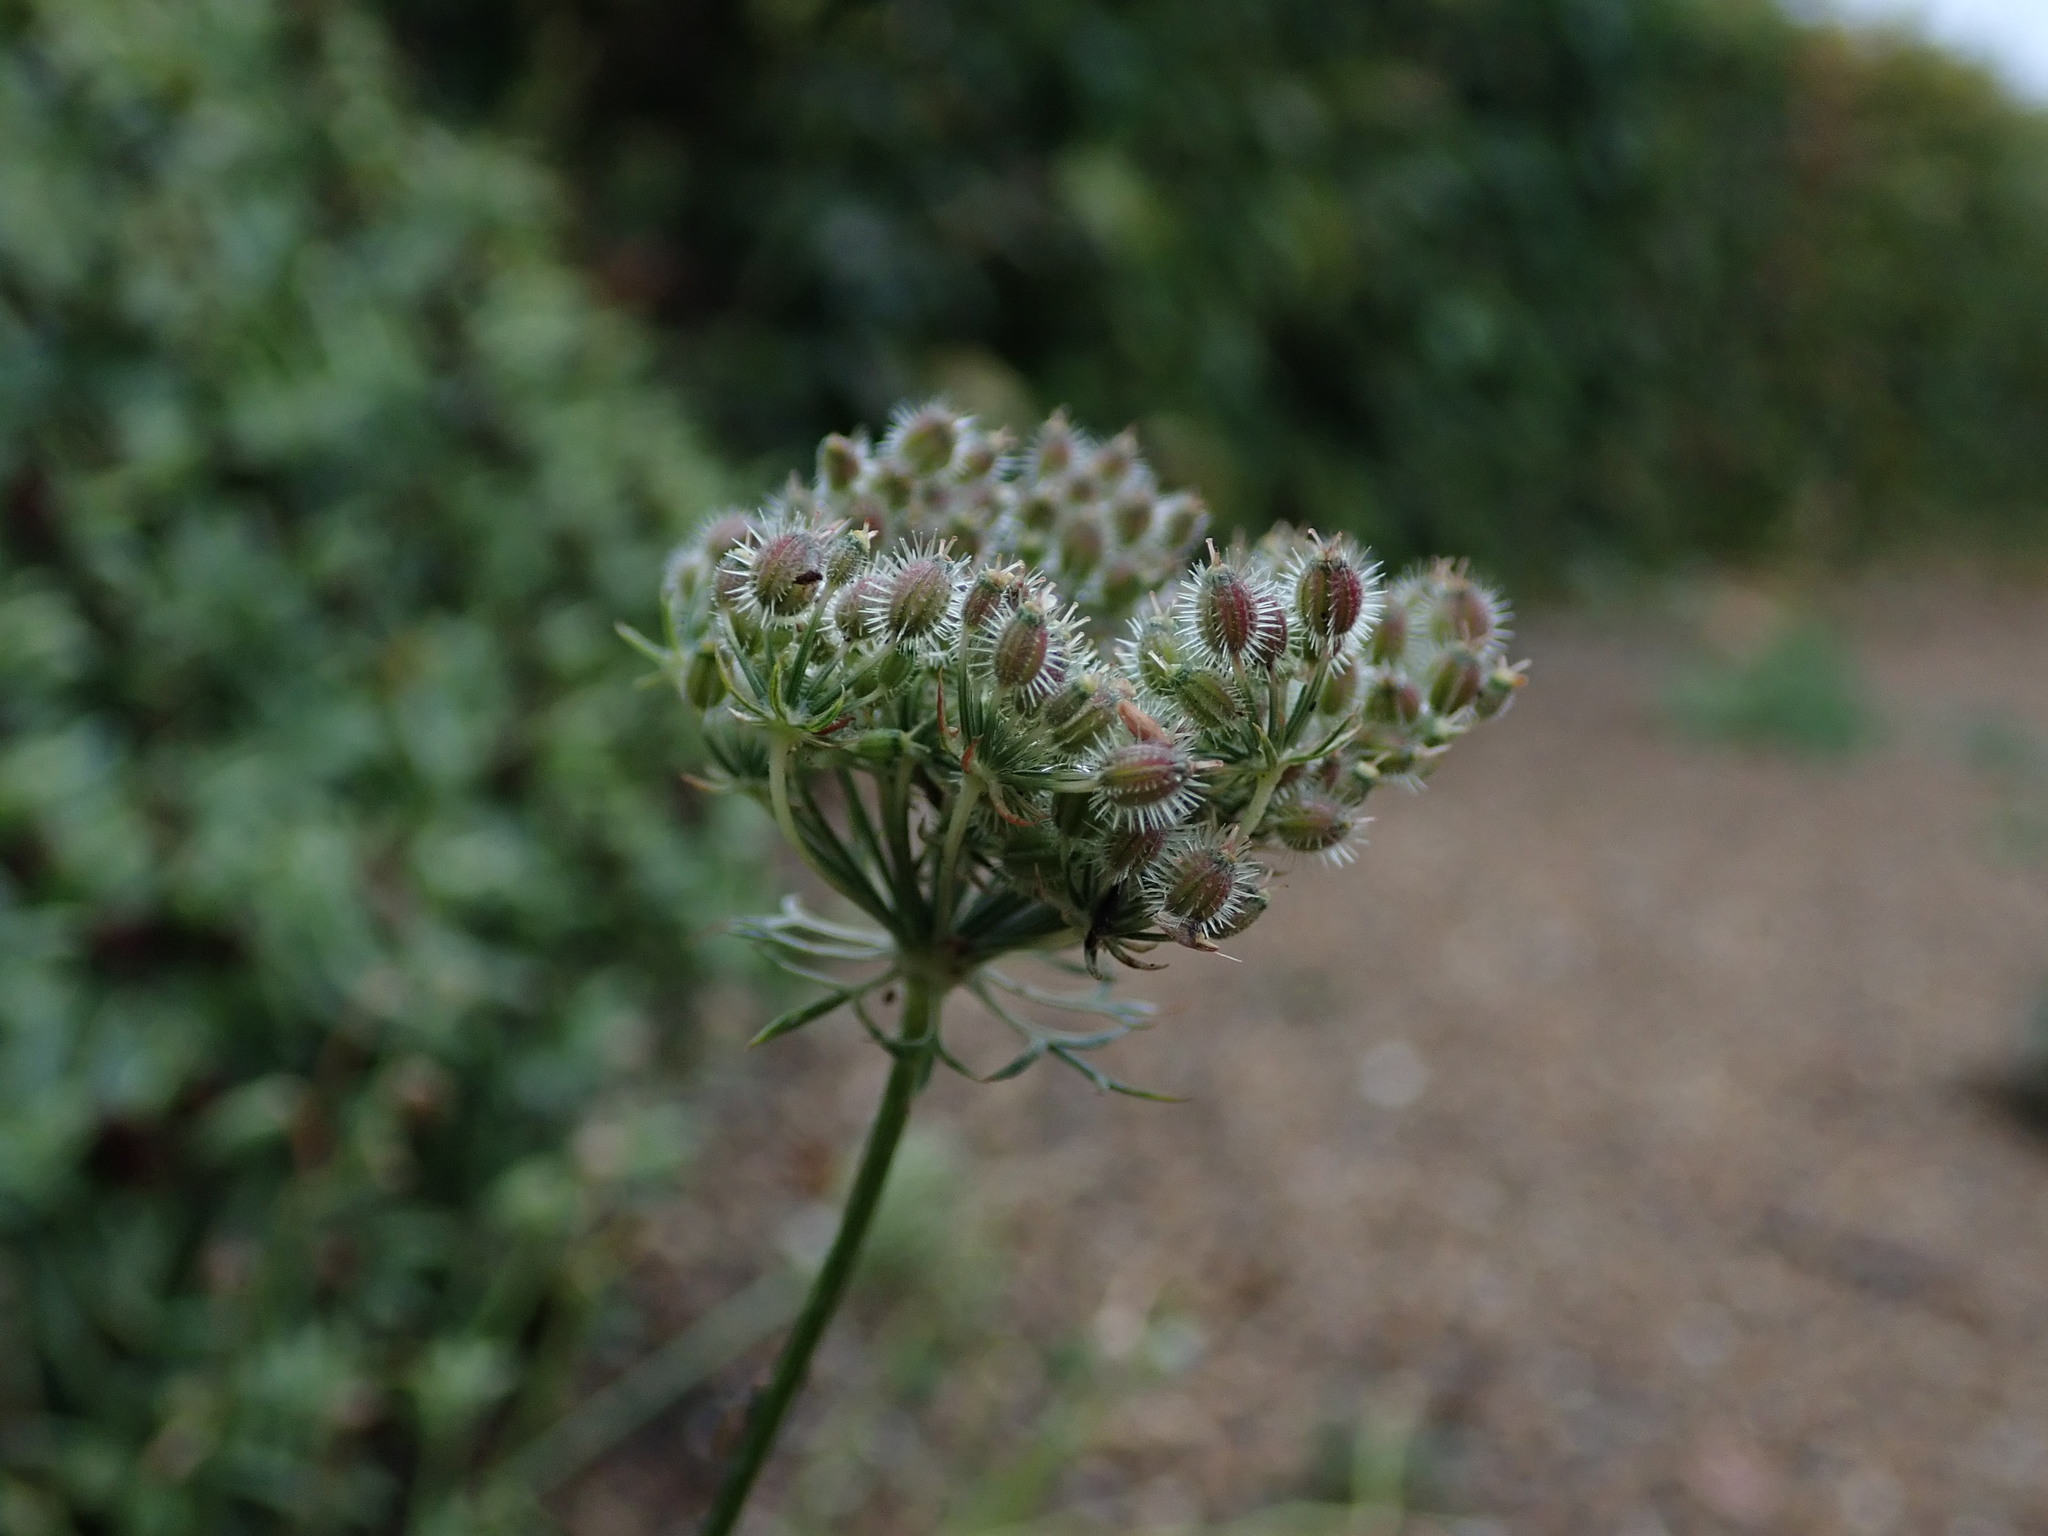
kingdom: Plantae
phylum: Tracheophyta
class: Magnoliopsida
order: Apiales
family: Apiaceae
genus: Daucus
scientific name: Daucus carota
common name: Wild carrot
